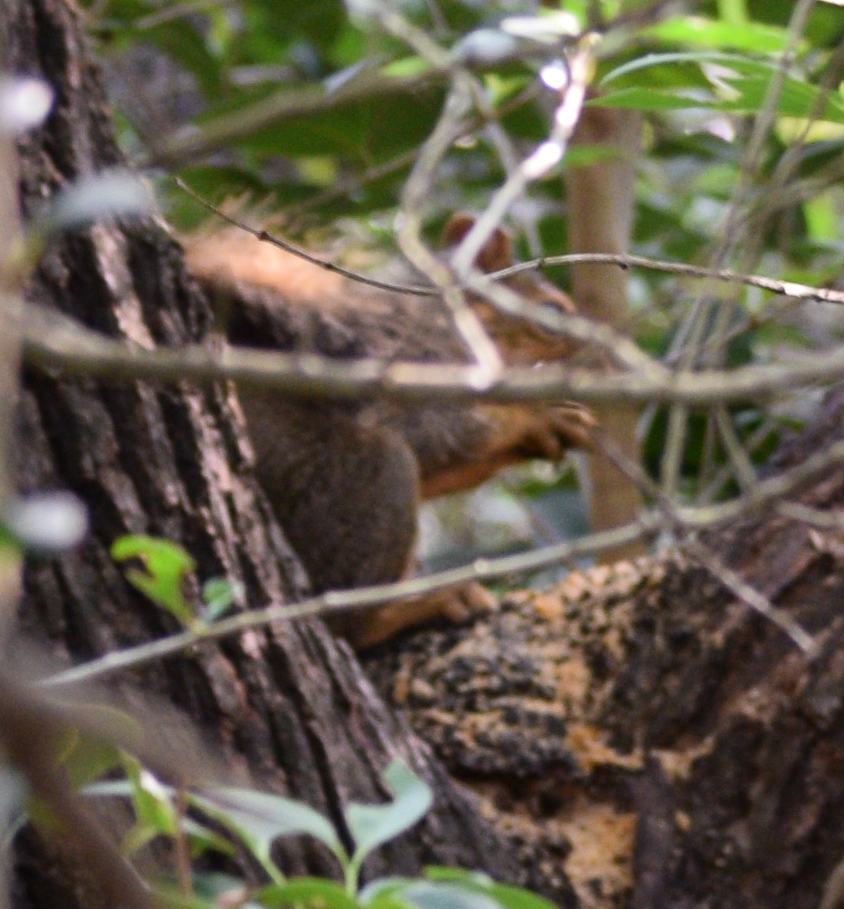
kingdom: Animalia
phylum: Chordata
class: Mammalia
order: Rodentia
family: Sciuridae
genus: Sciurus
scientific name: Sciurus niger
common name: Fox squirrel
